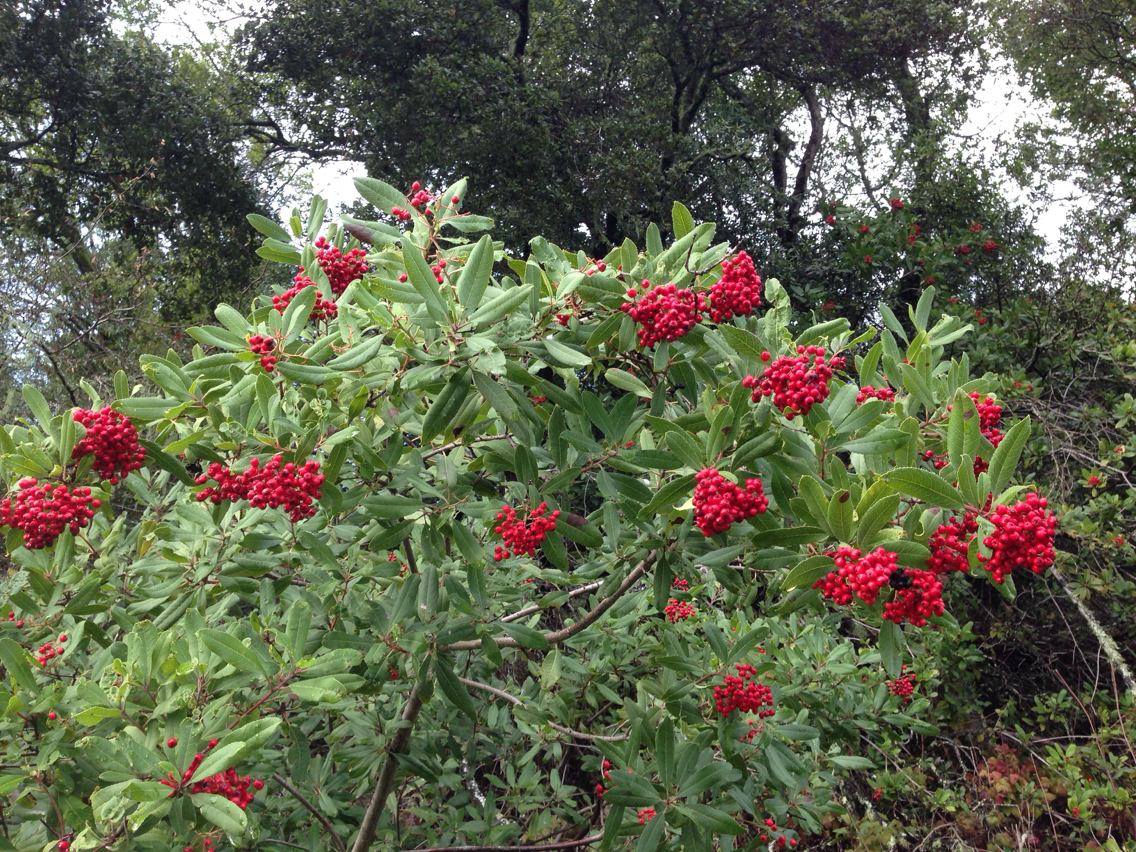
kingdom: Plantae
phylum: Tracheophyta
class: Magnoliopsida
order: Rosales
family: Rosaceae
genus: Heteromeles
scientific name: Heteromeles arbutifolia
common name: California-holly
